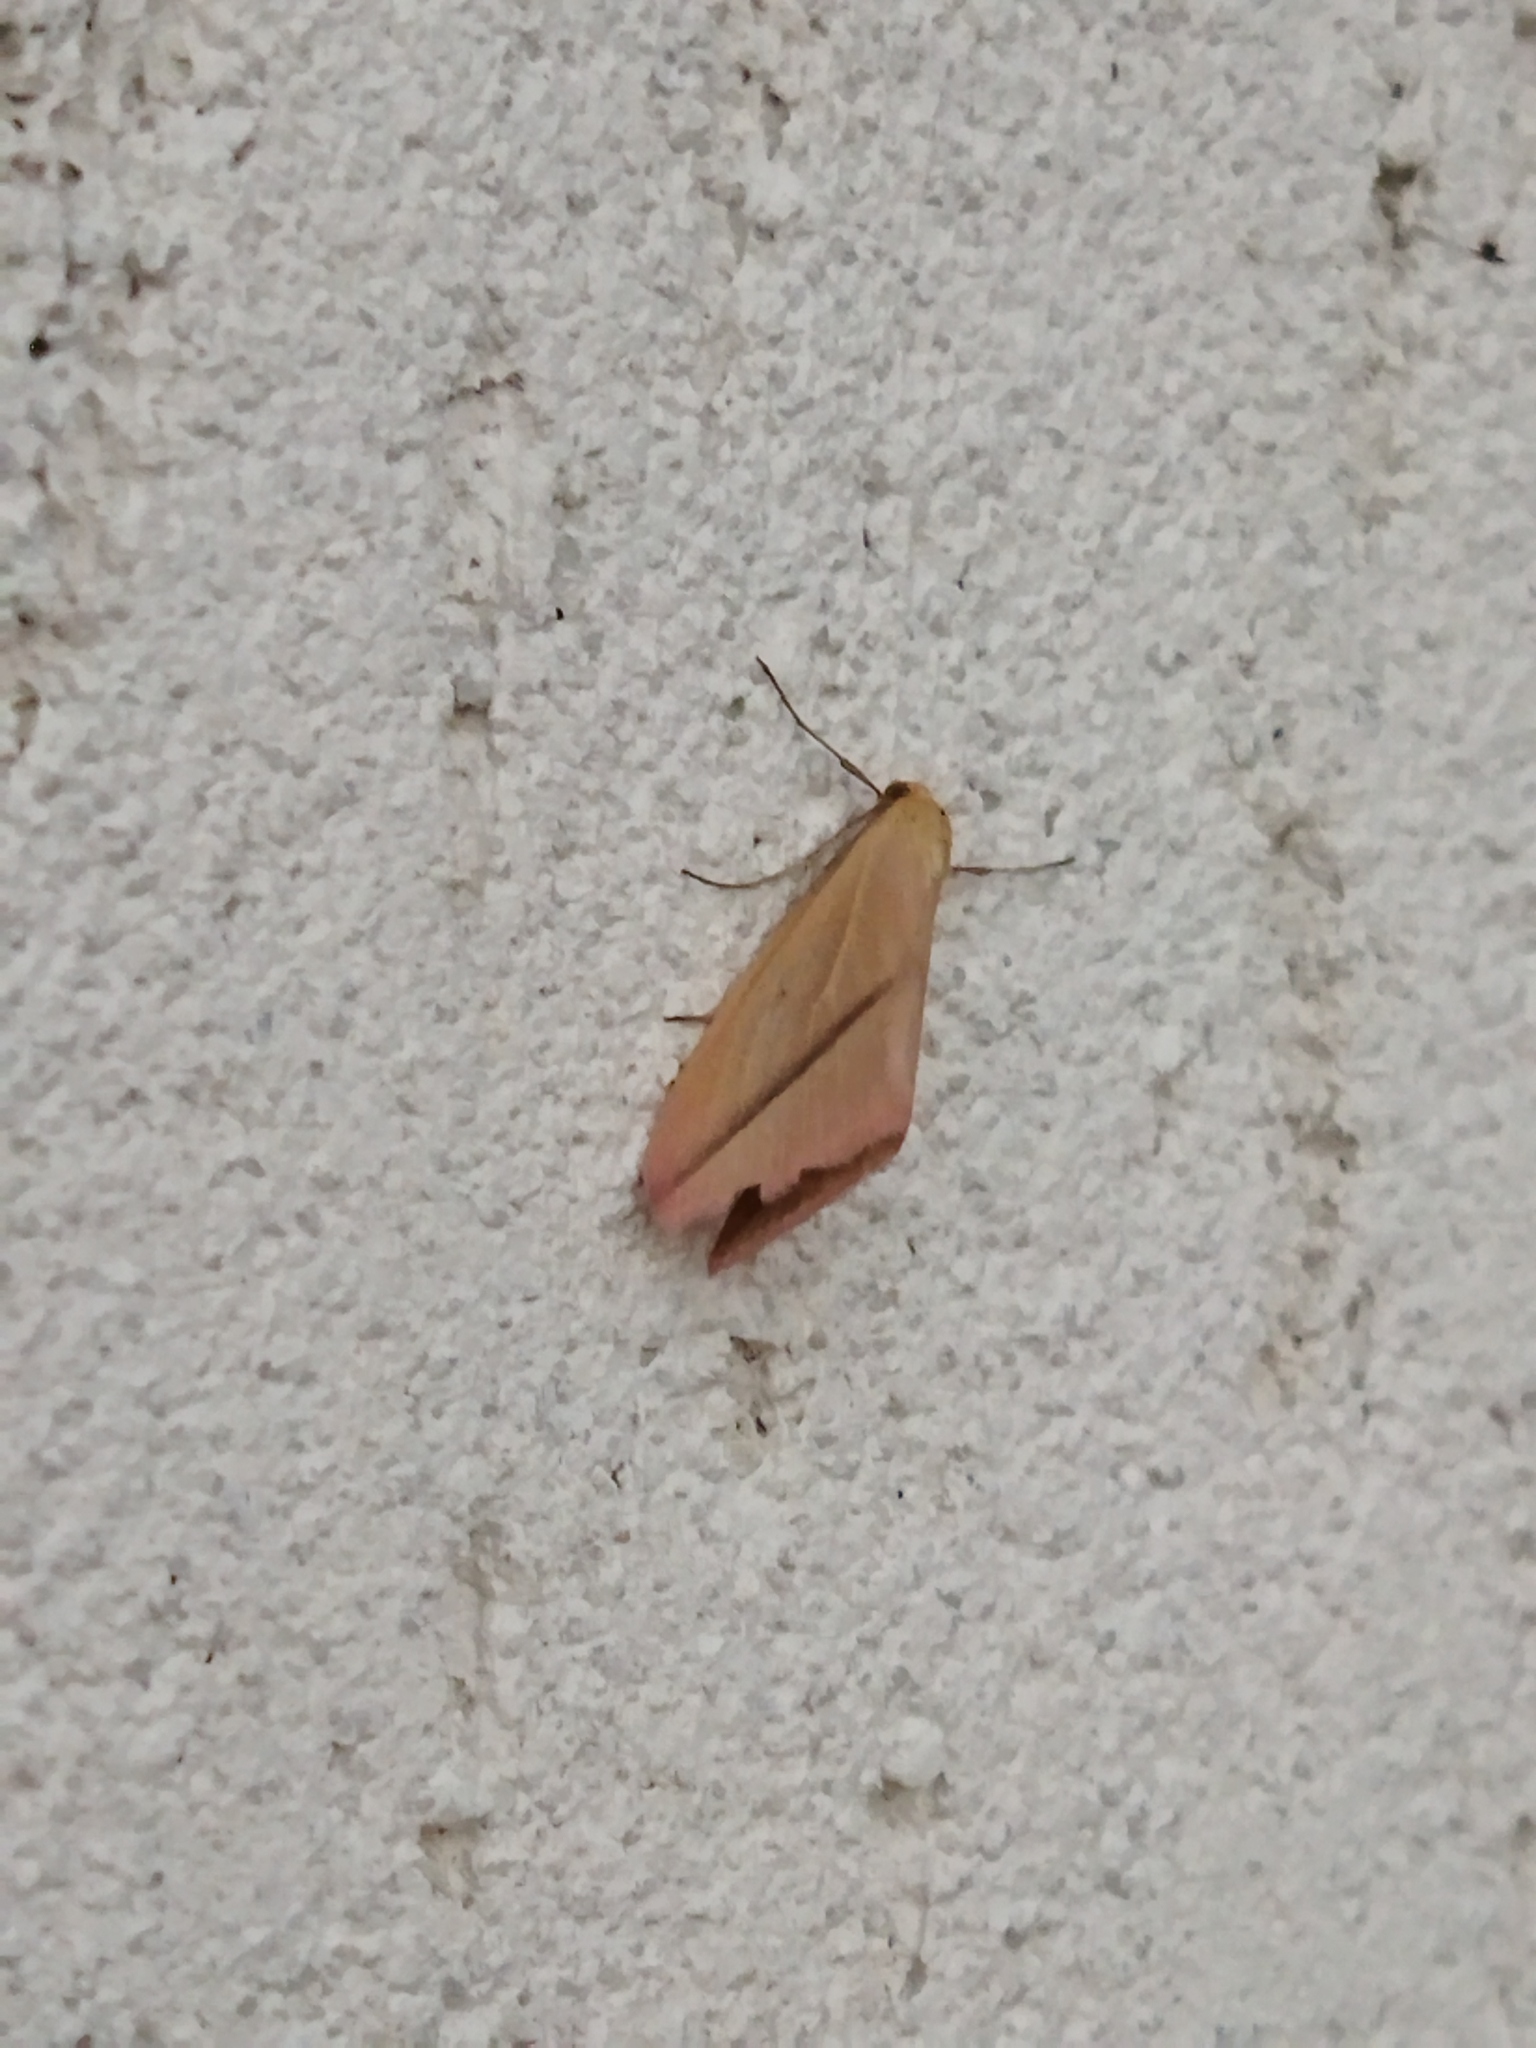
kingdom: Animalia
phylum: Arthropoda
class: Insecta
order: Lepidoptera
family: Geometridae
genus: Rhodometra
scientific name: Rhodometra sacraria
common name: Vestal
